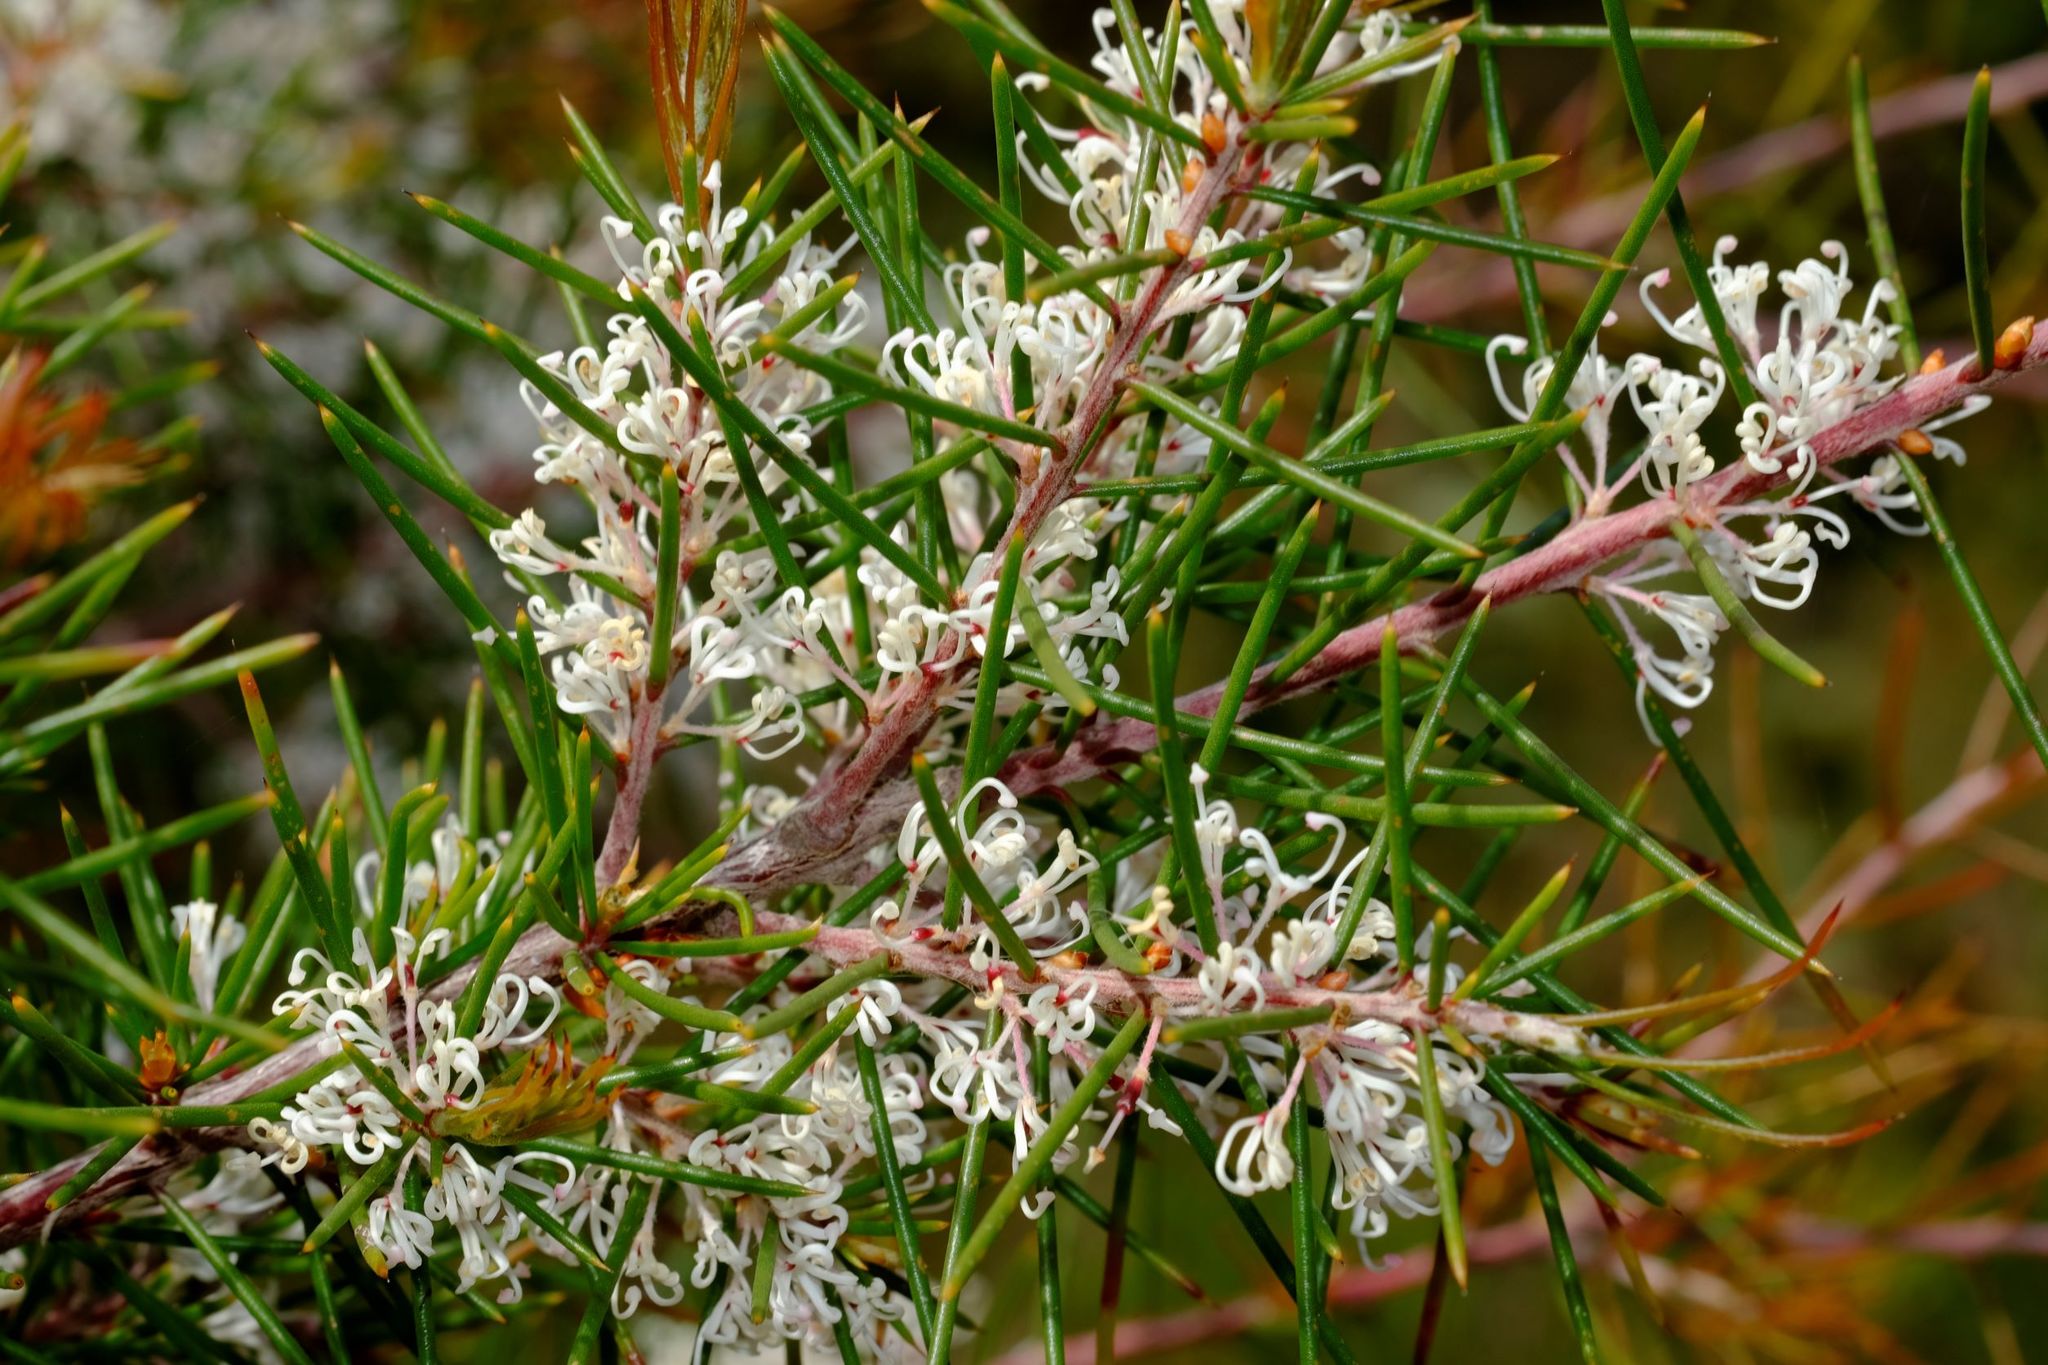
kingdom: Plantae
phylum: Tracheophyta
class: Magnoliopsida
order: Proteales
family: Proteaceae
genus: Hakea
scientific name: Hakea decurrens
